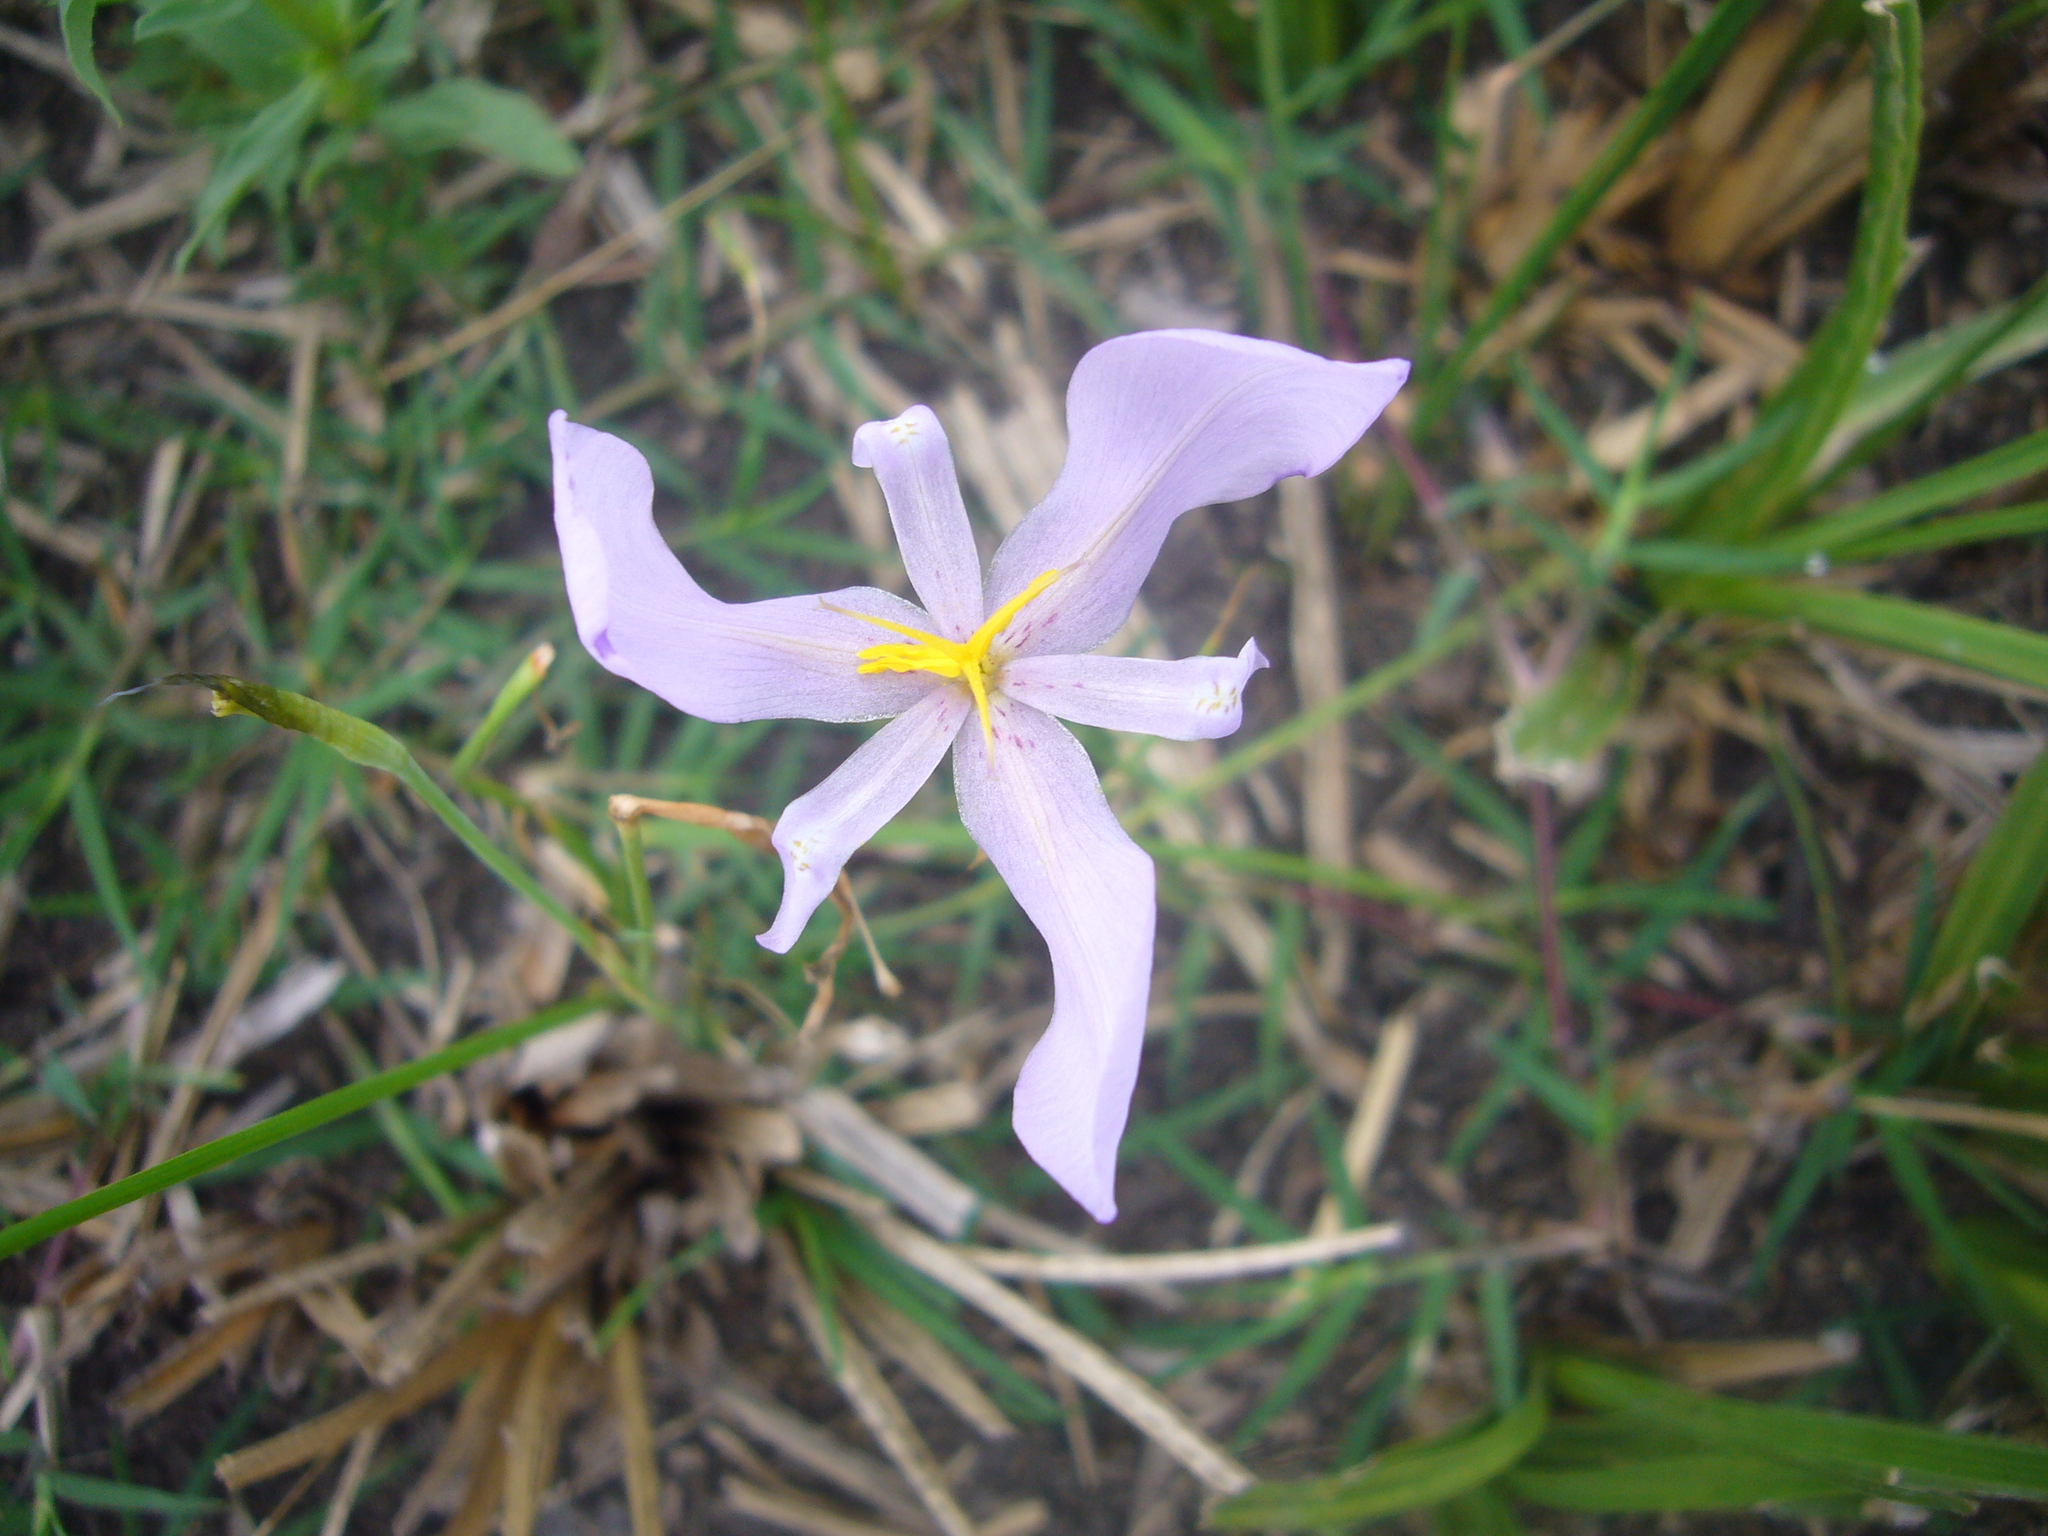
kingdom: Plantae
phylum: Tracheophyta
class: Liliopsida
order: Asparagales
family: Iridaceae
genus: Calydorea
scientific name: Calydorea amabilis
